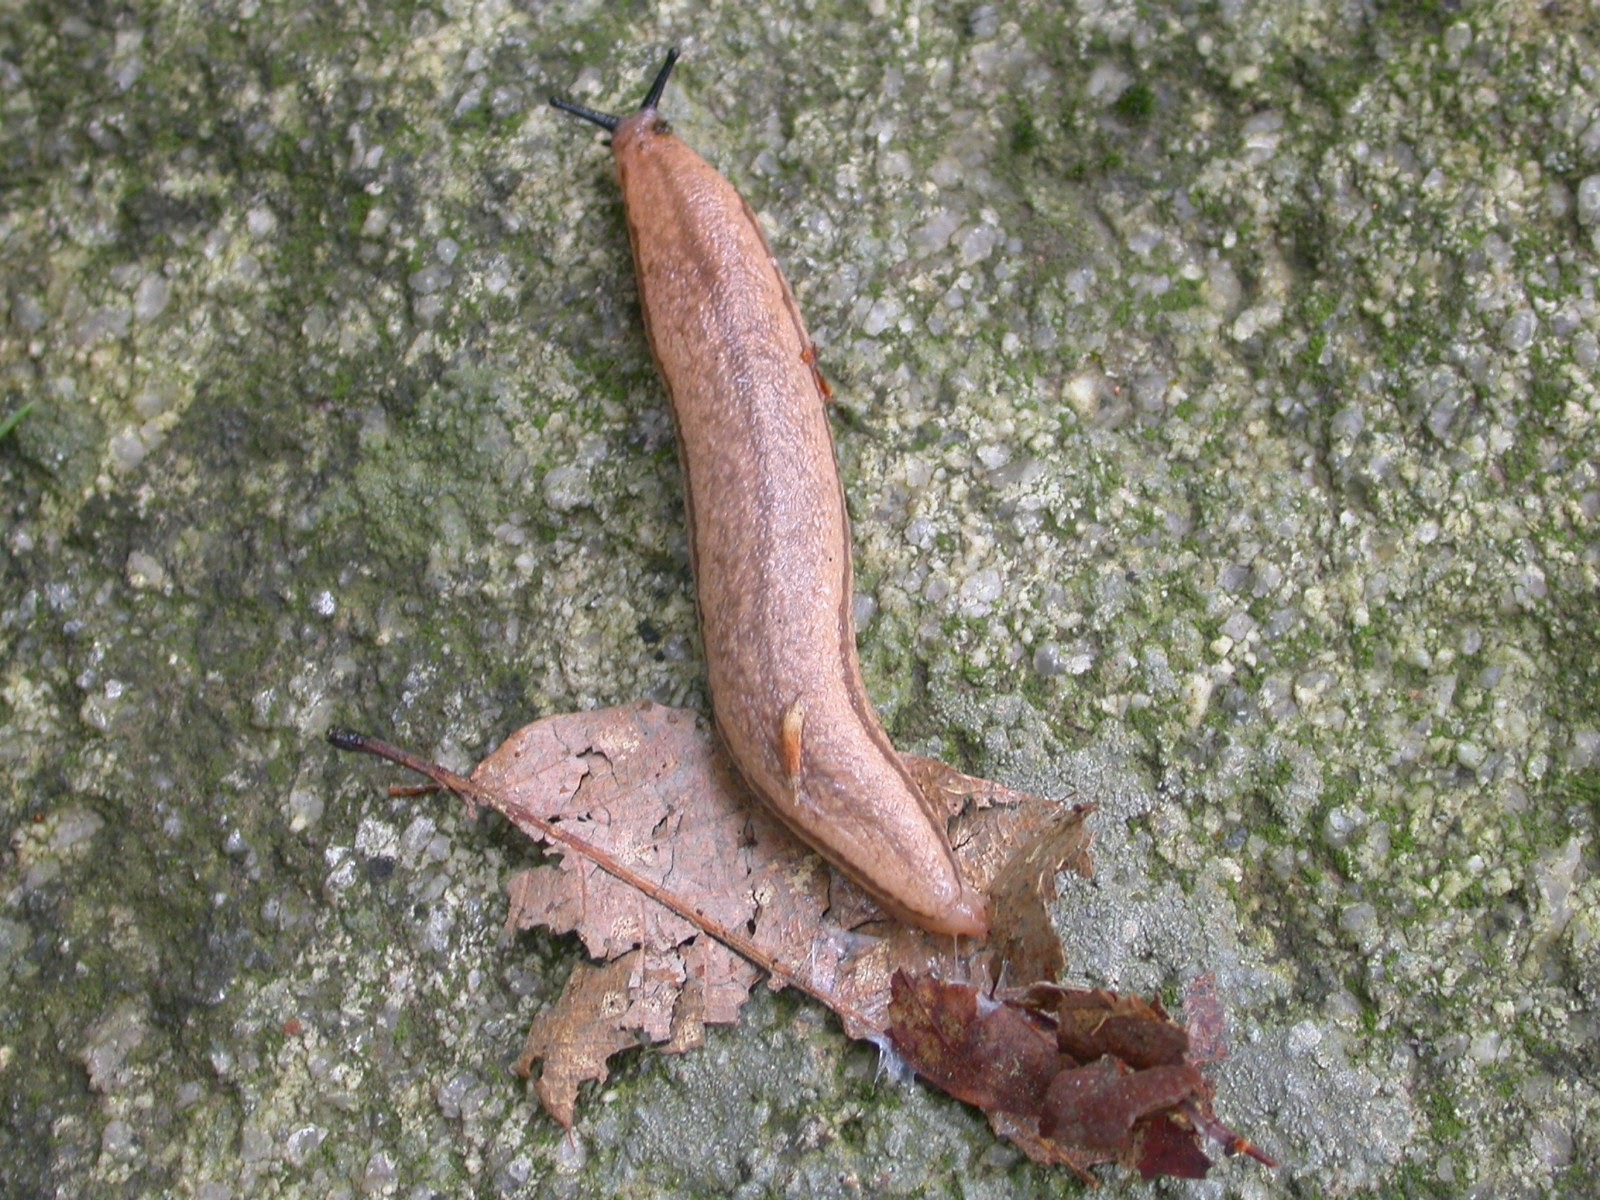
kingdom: Animalia
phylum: Mollusca
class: Gastropoda
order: Stylommatophora
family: Philomycidae
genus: Meghimatium
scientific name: Meghimatium bilineatum
